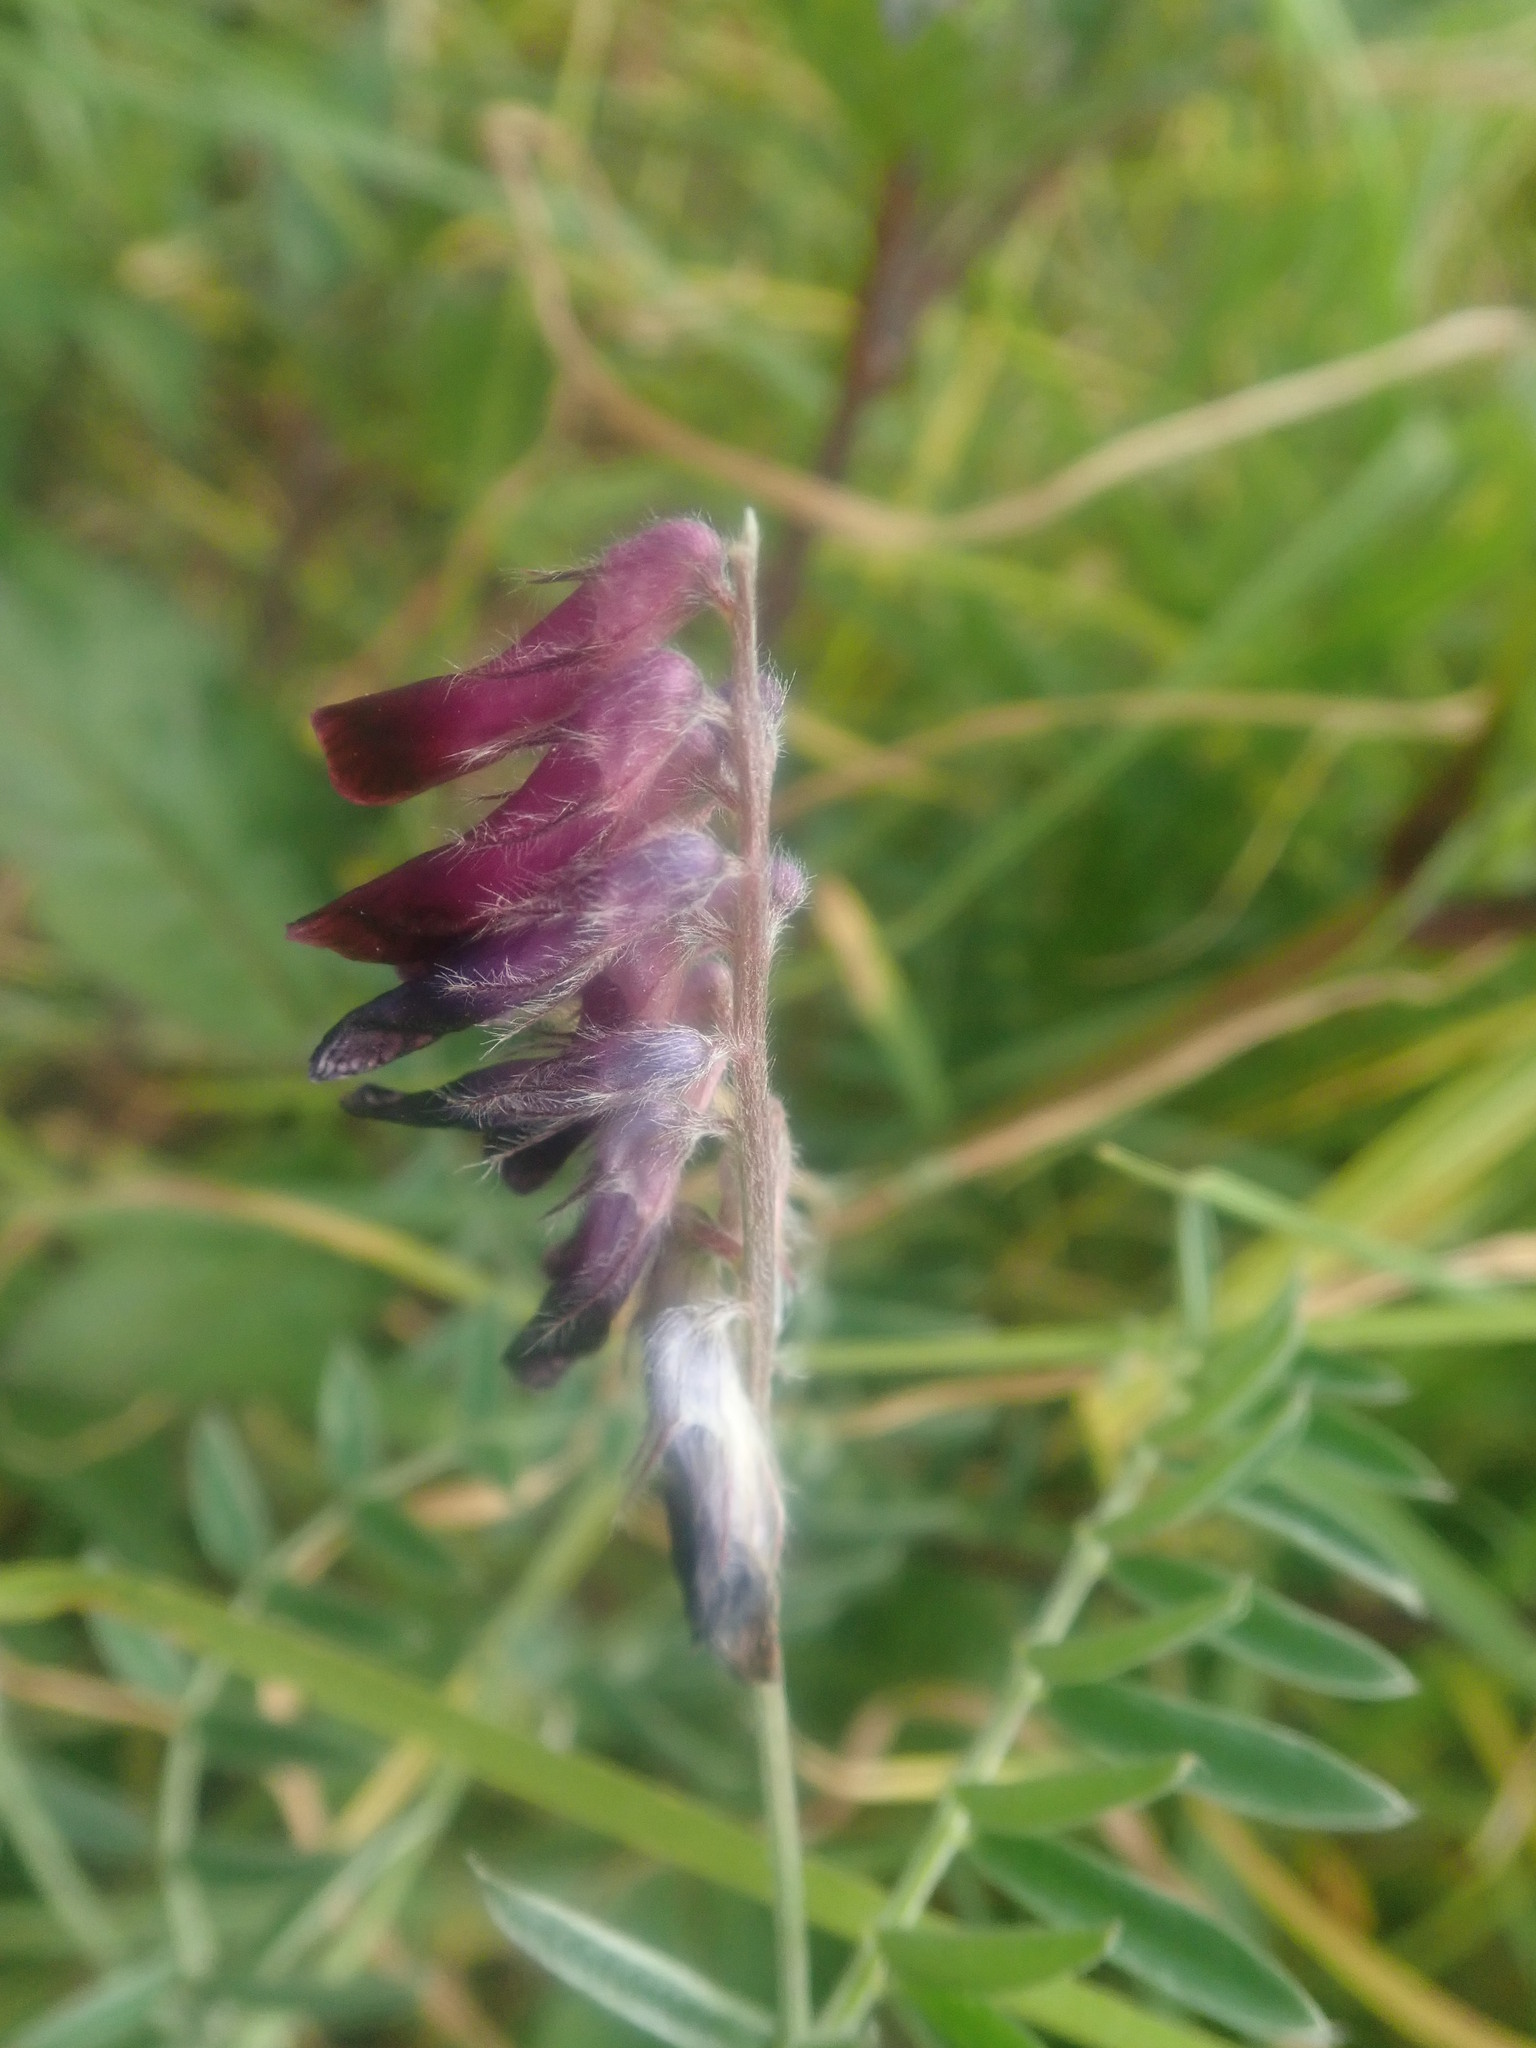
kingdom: Plantae
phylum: Tracheophyta
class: Magnoliopsida
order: Fabales
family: Fabaceae
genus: Vicia
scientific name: Vicia benghalensis
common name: Purple vetch
